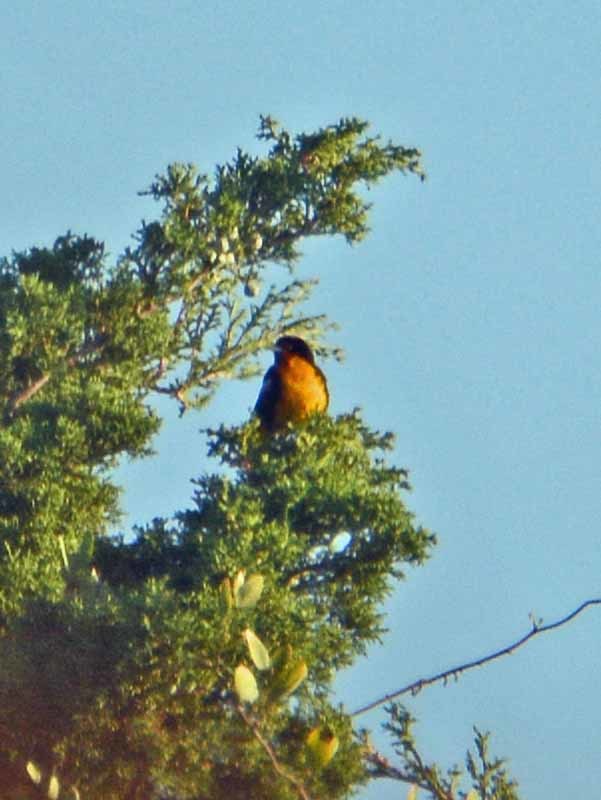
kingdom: Animalia
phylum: Chordata
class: Aves
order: Passeriformes
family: Icteridae
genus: Icterus
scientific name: Icterus abeillei
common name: Black-backed oriole
